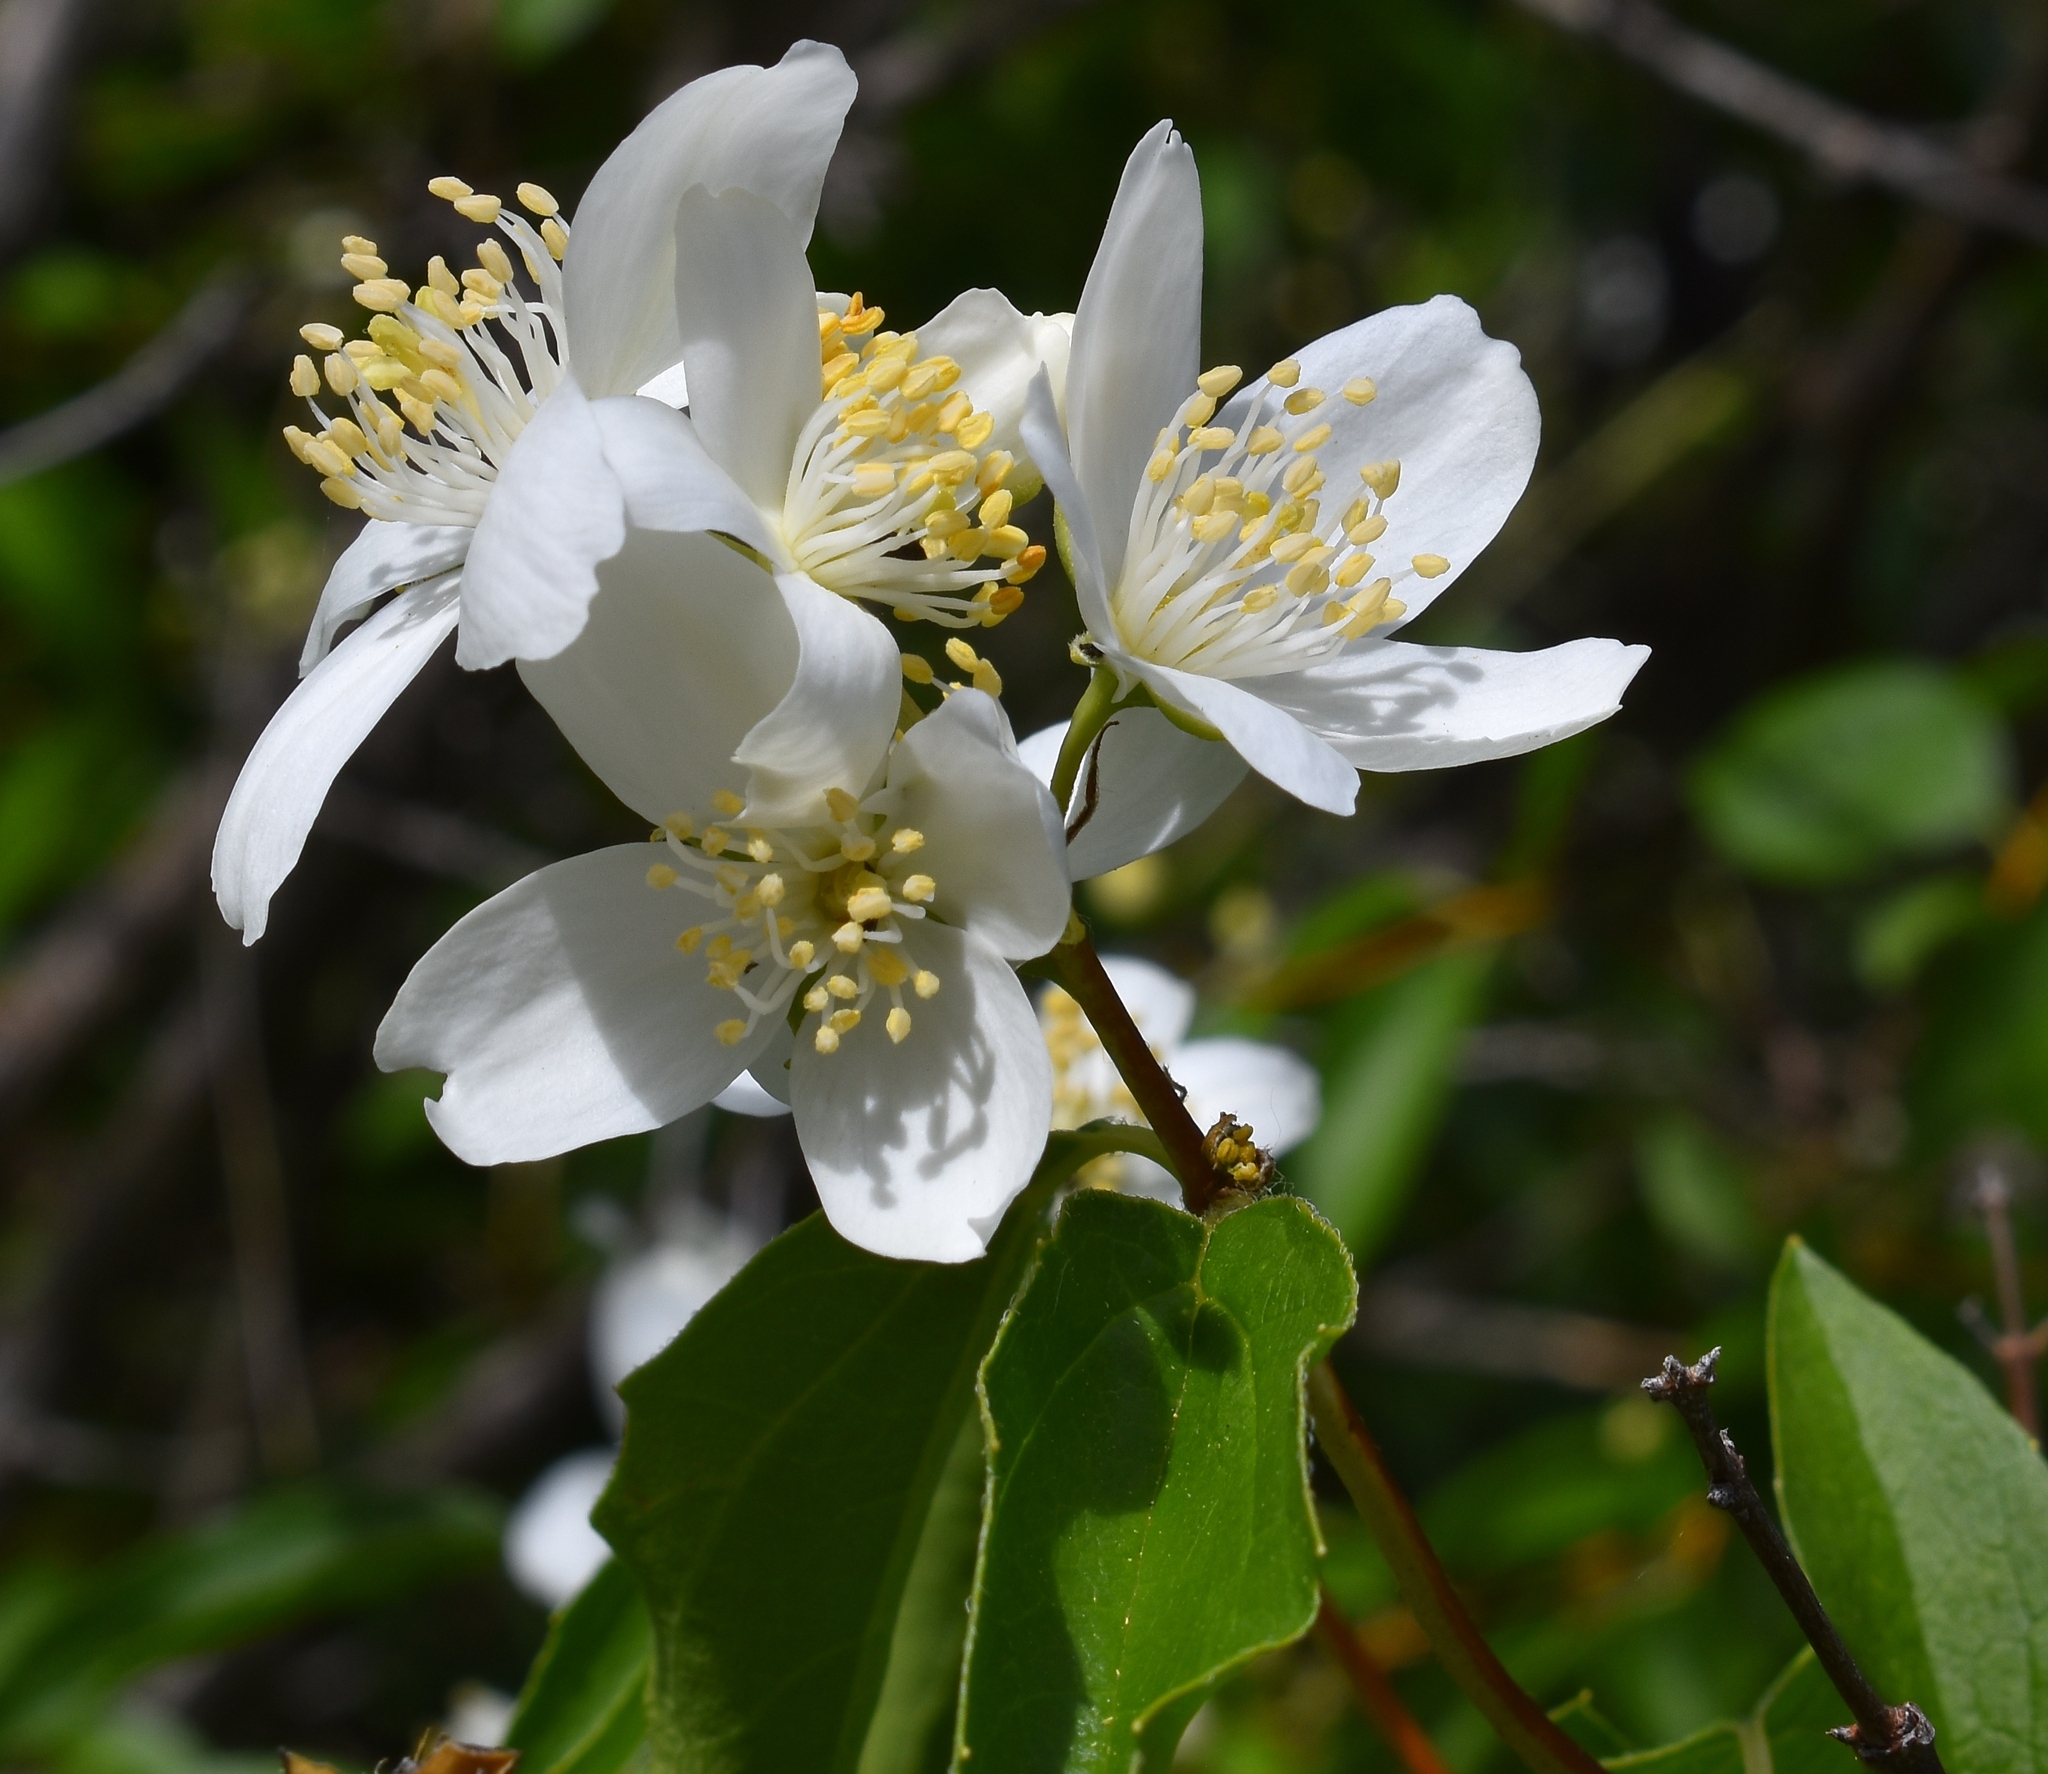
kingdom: Plantae
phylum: Tracheophyta
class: Magnoliopsida
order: Cornales
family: Hydrangeaceae
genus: Philadelphus
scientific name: Philadelphus lewisii
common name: Lewis's mock orange
